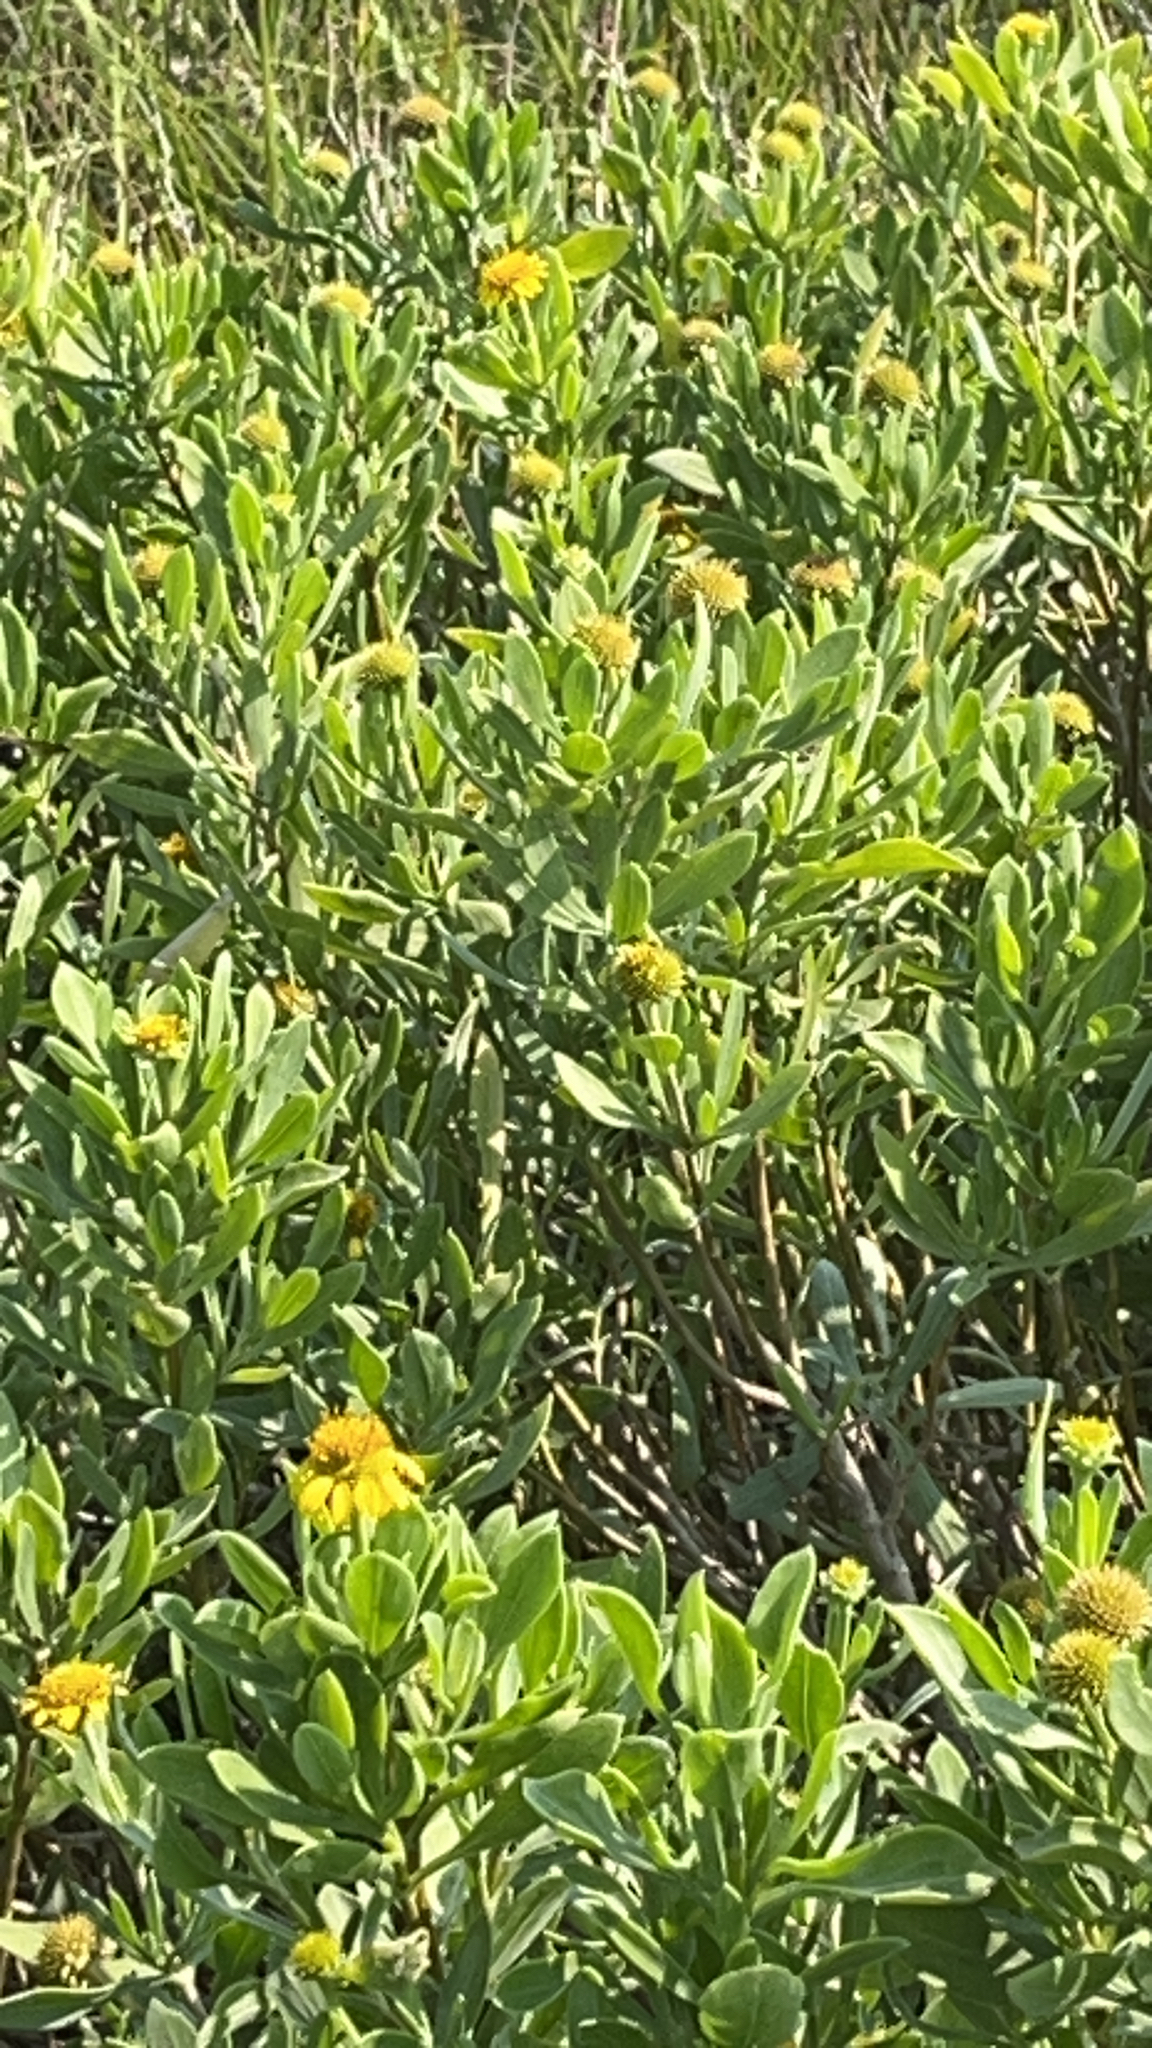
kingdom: Plantae
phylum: Tracheophyta
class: Magnoliopsida
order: Asterales
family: Asteraceae
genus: Borrichia
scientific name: Borrichia frutescens
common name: Sea oxeye
